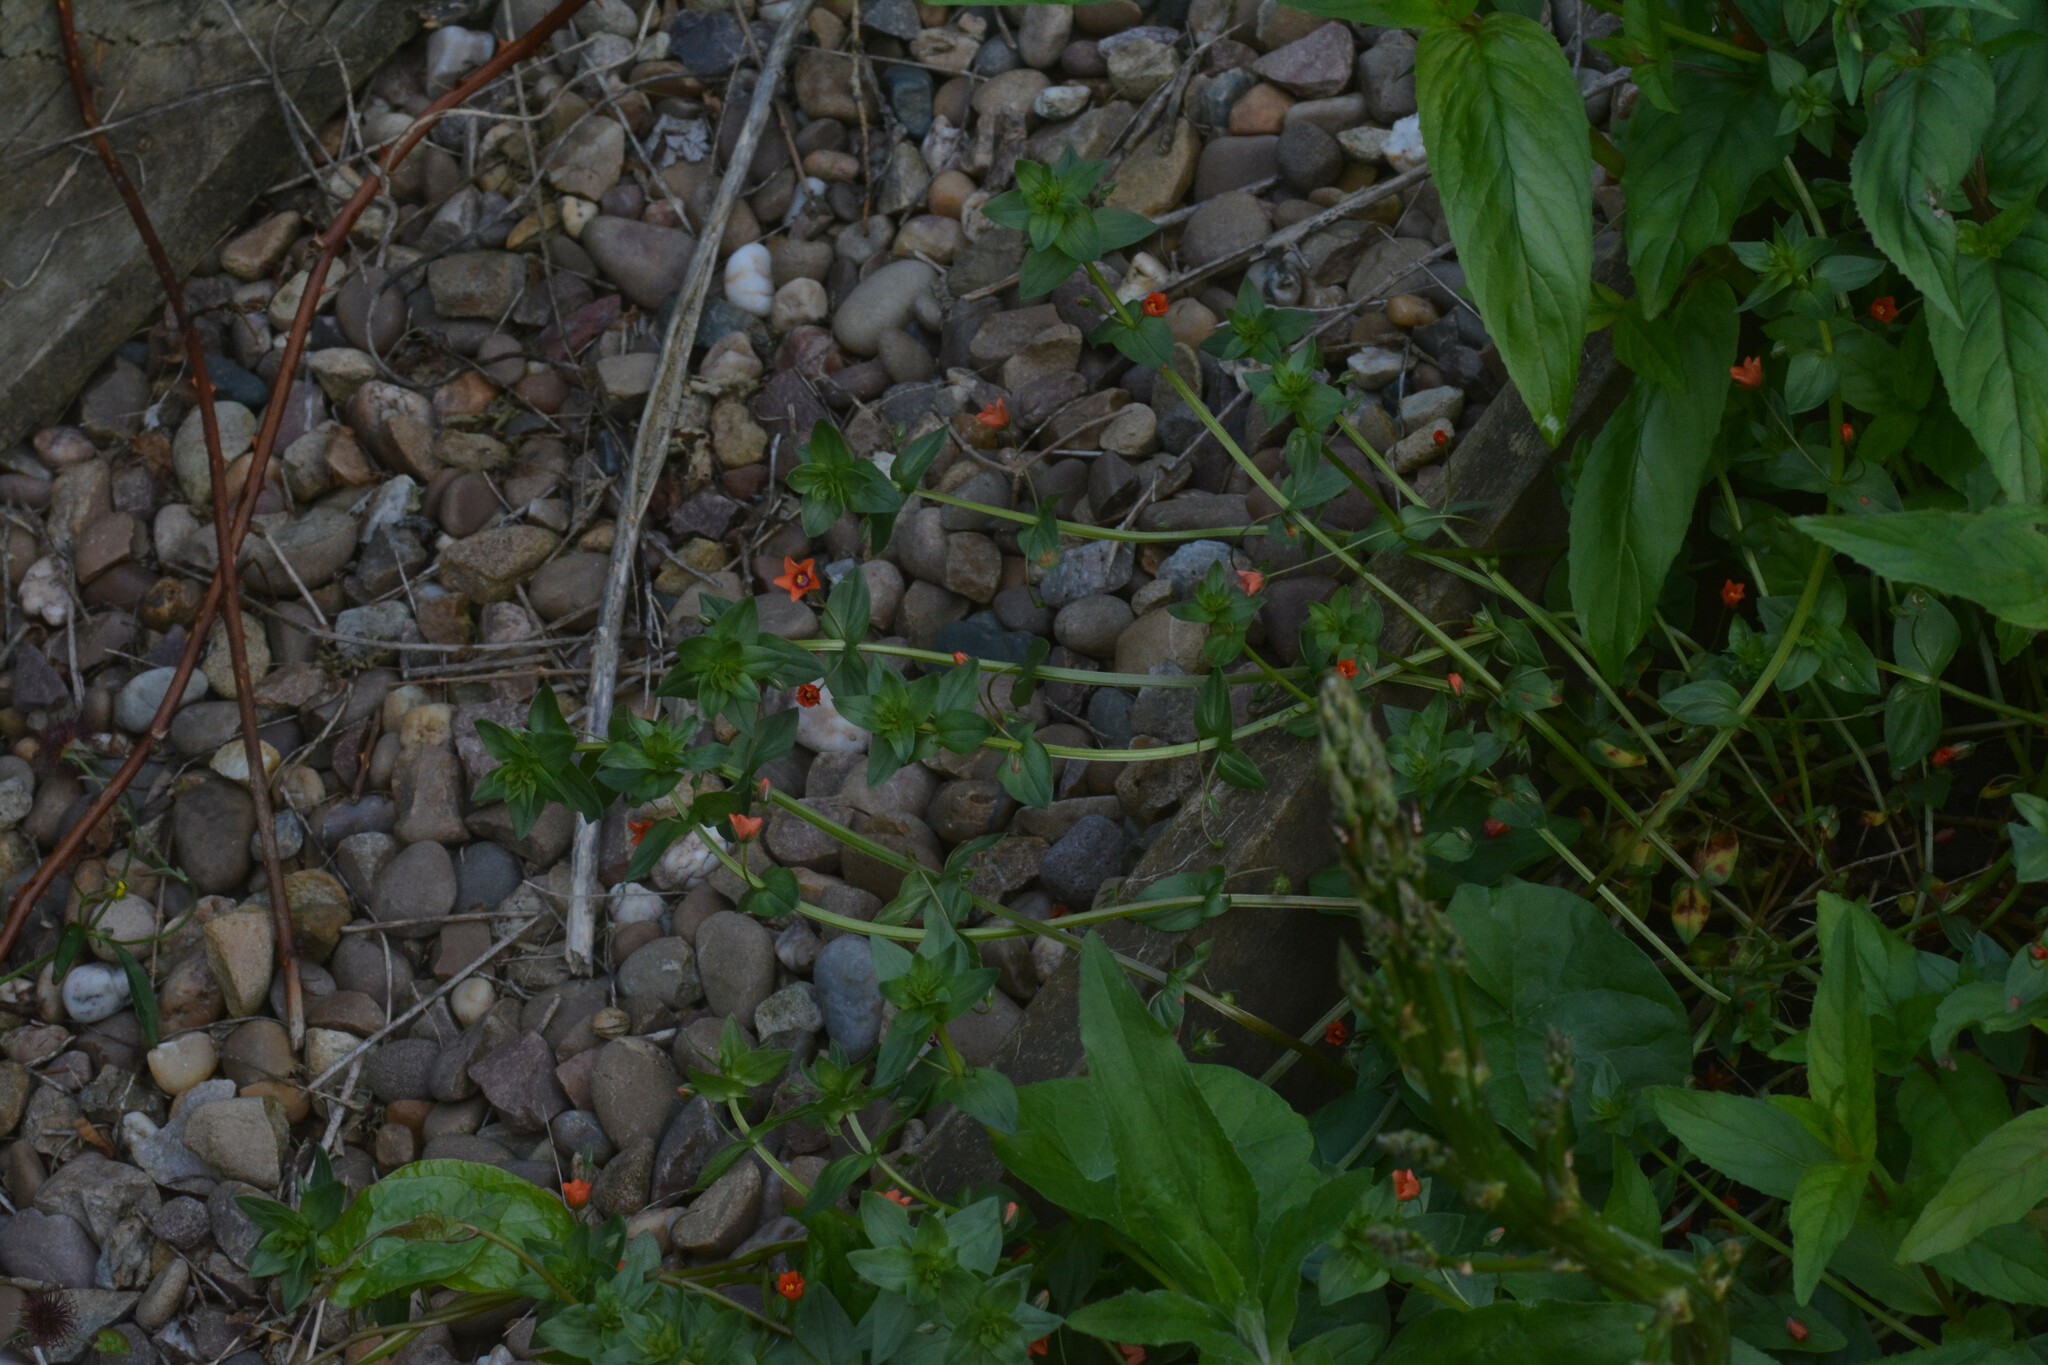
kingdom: Plantae
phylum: Tracheophyta
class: Magnoliopsida
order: Ericales
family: Primulaceae
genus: Lysimachia
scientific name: Lysimachia arvensis
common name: Scarlet pimpernel
